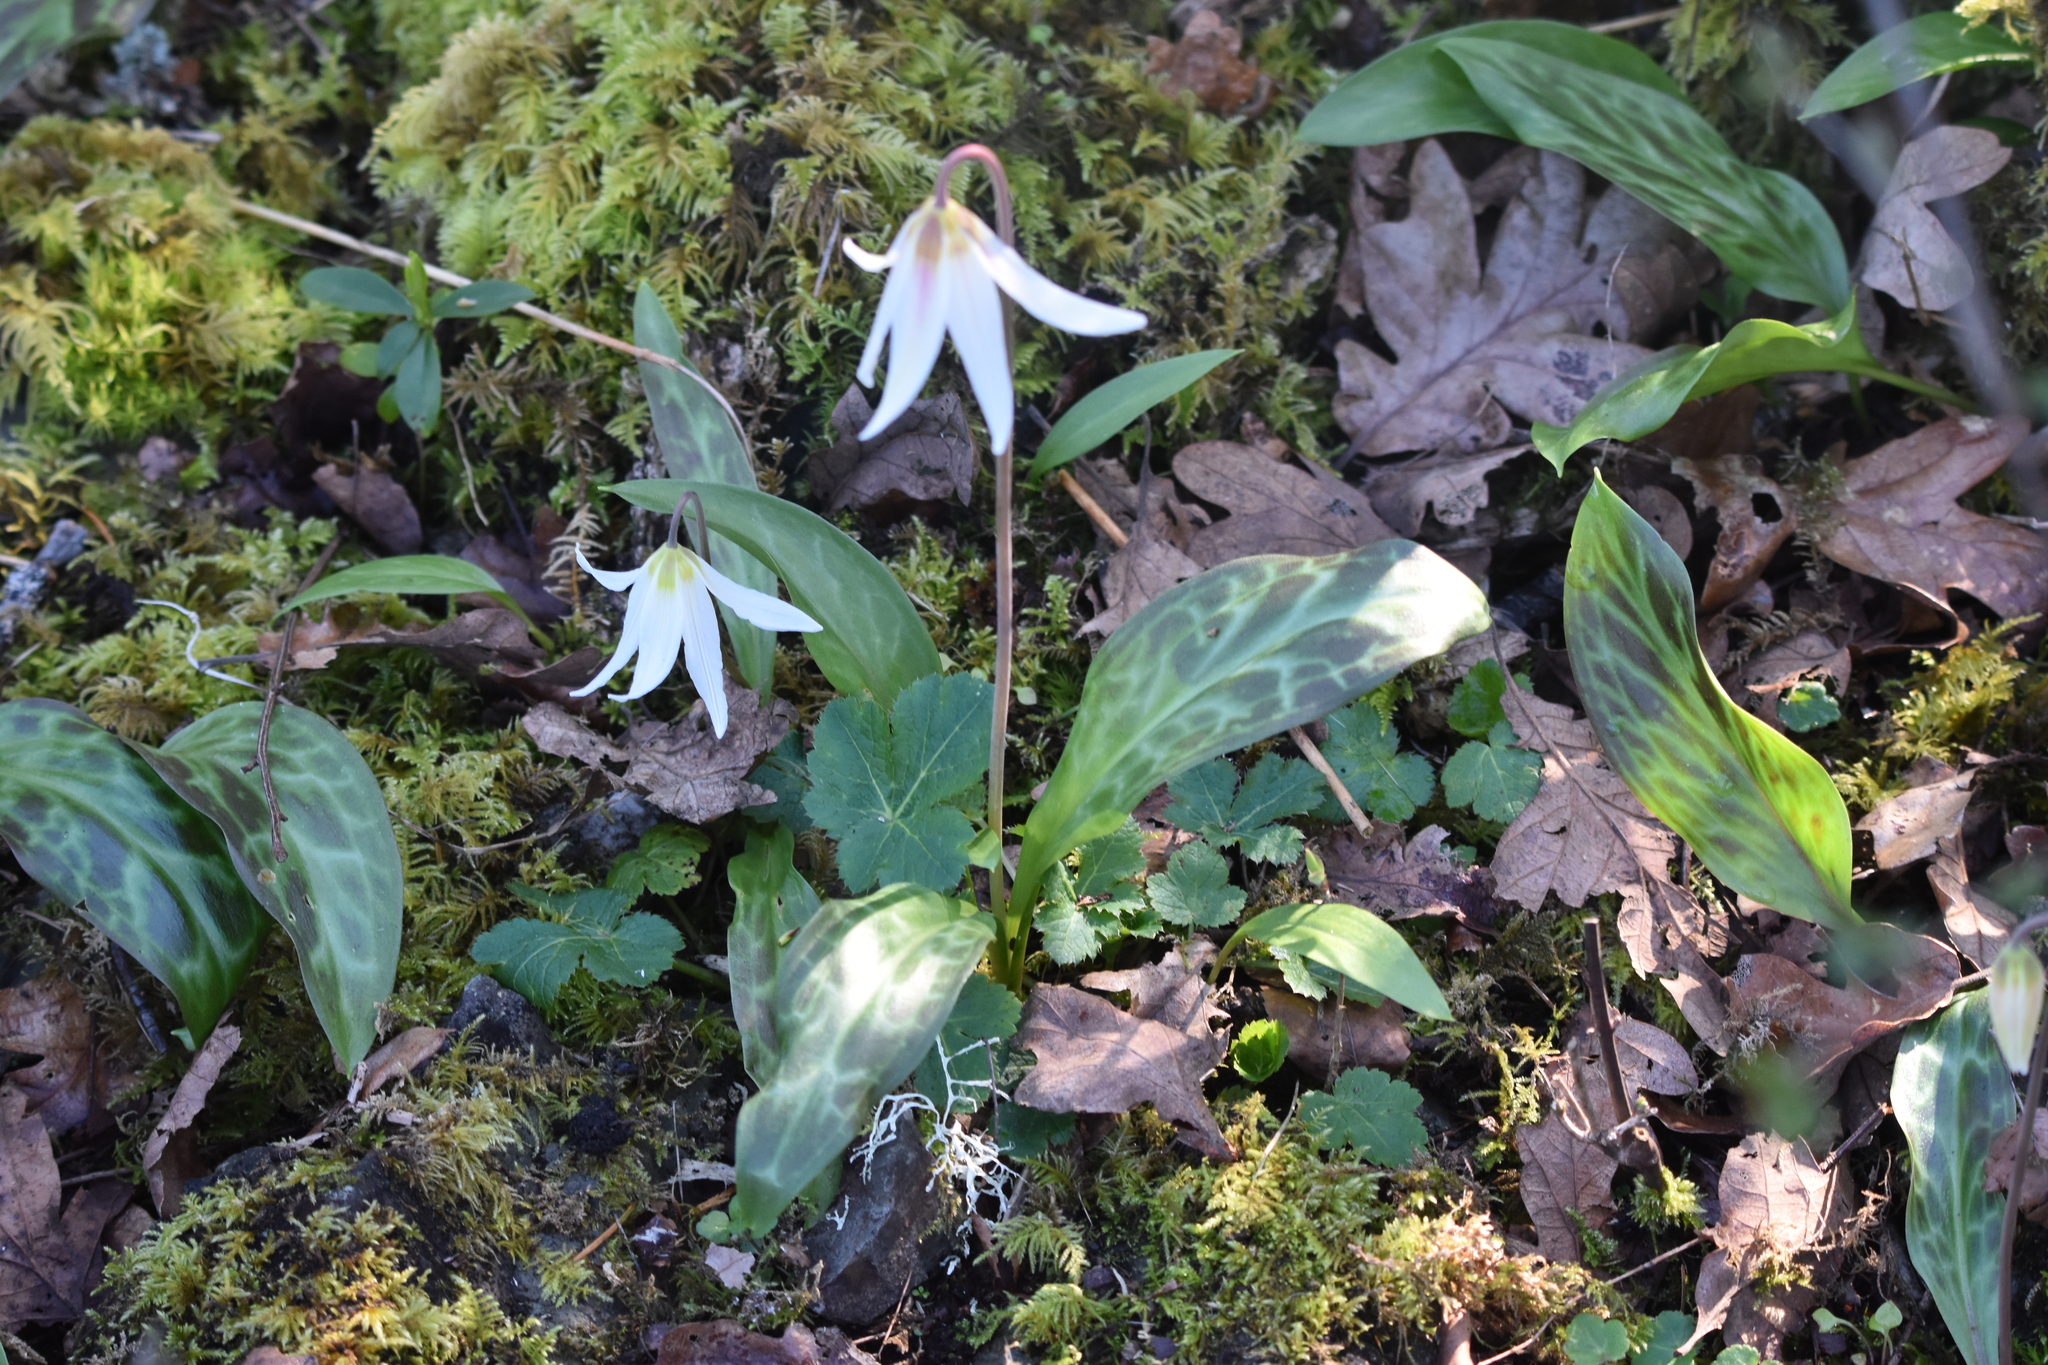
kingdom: Plantae
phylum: Tracheophyta
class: Liliopsida
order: Liliales
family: Liliaceae
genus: Erythronium
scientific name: Erythronium oregonum
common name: Giant adder's-tongue
